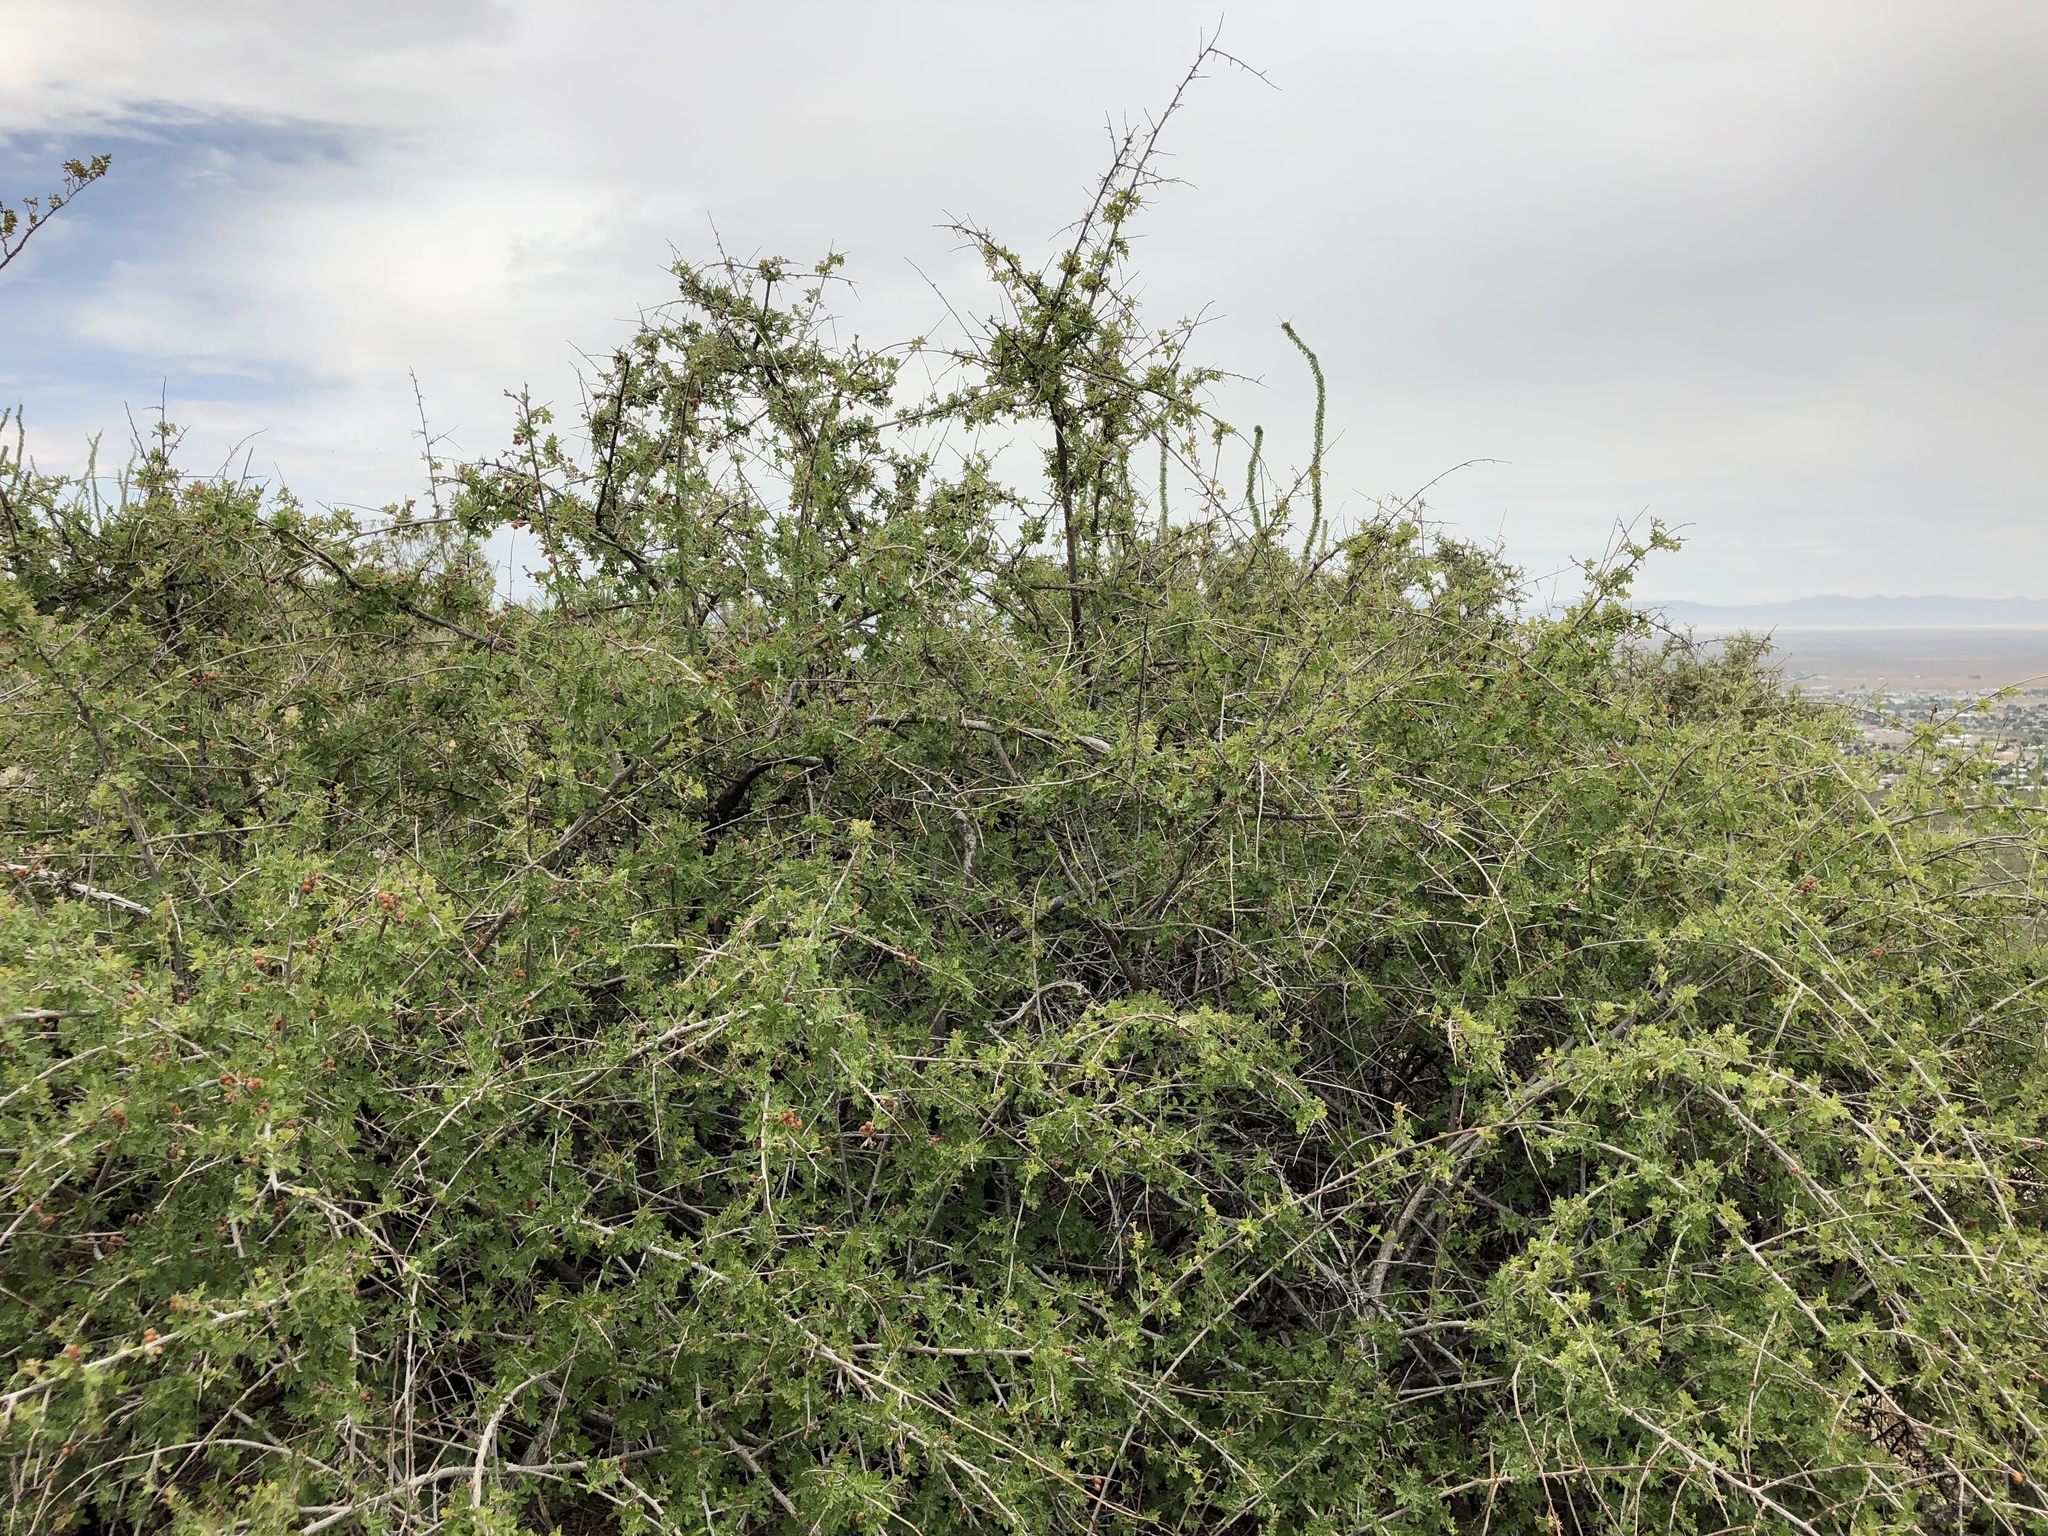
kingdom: Plantae
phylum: Tracheophyta
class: Magnoliopsida
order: Sapindales
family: Anacardiaceae
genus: Rhus
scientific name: Rhus microphylla
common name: Desert sumac
